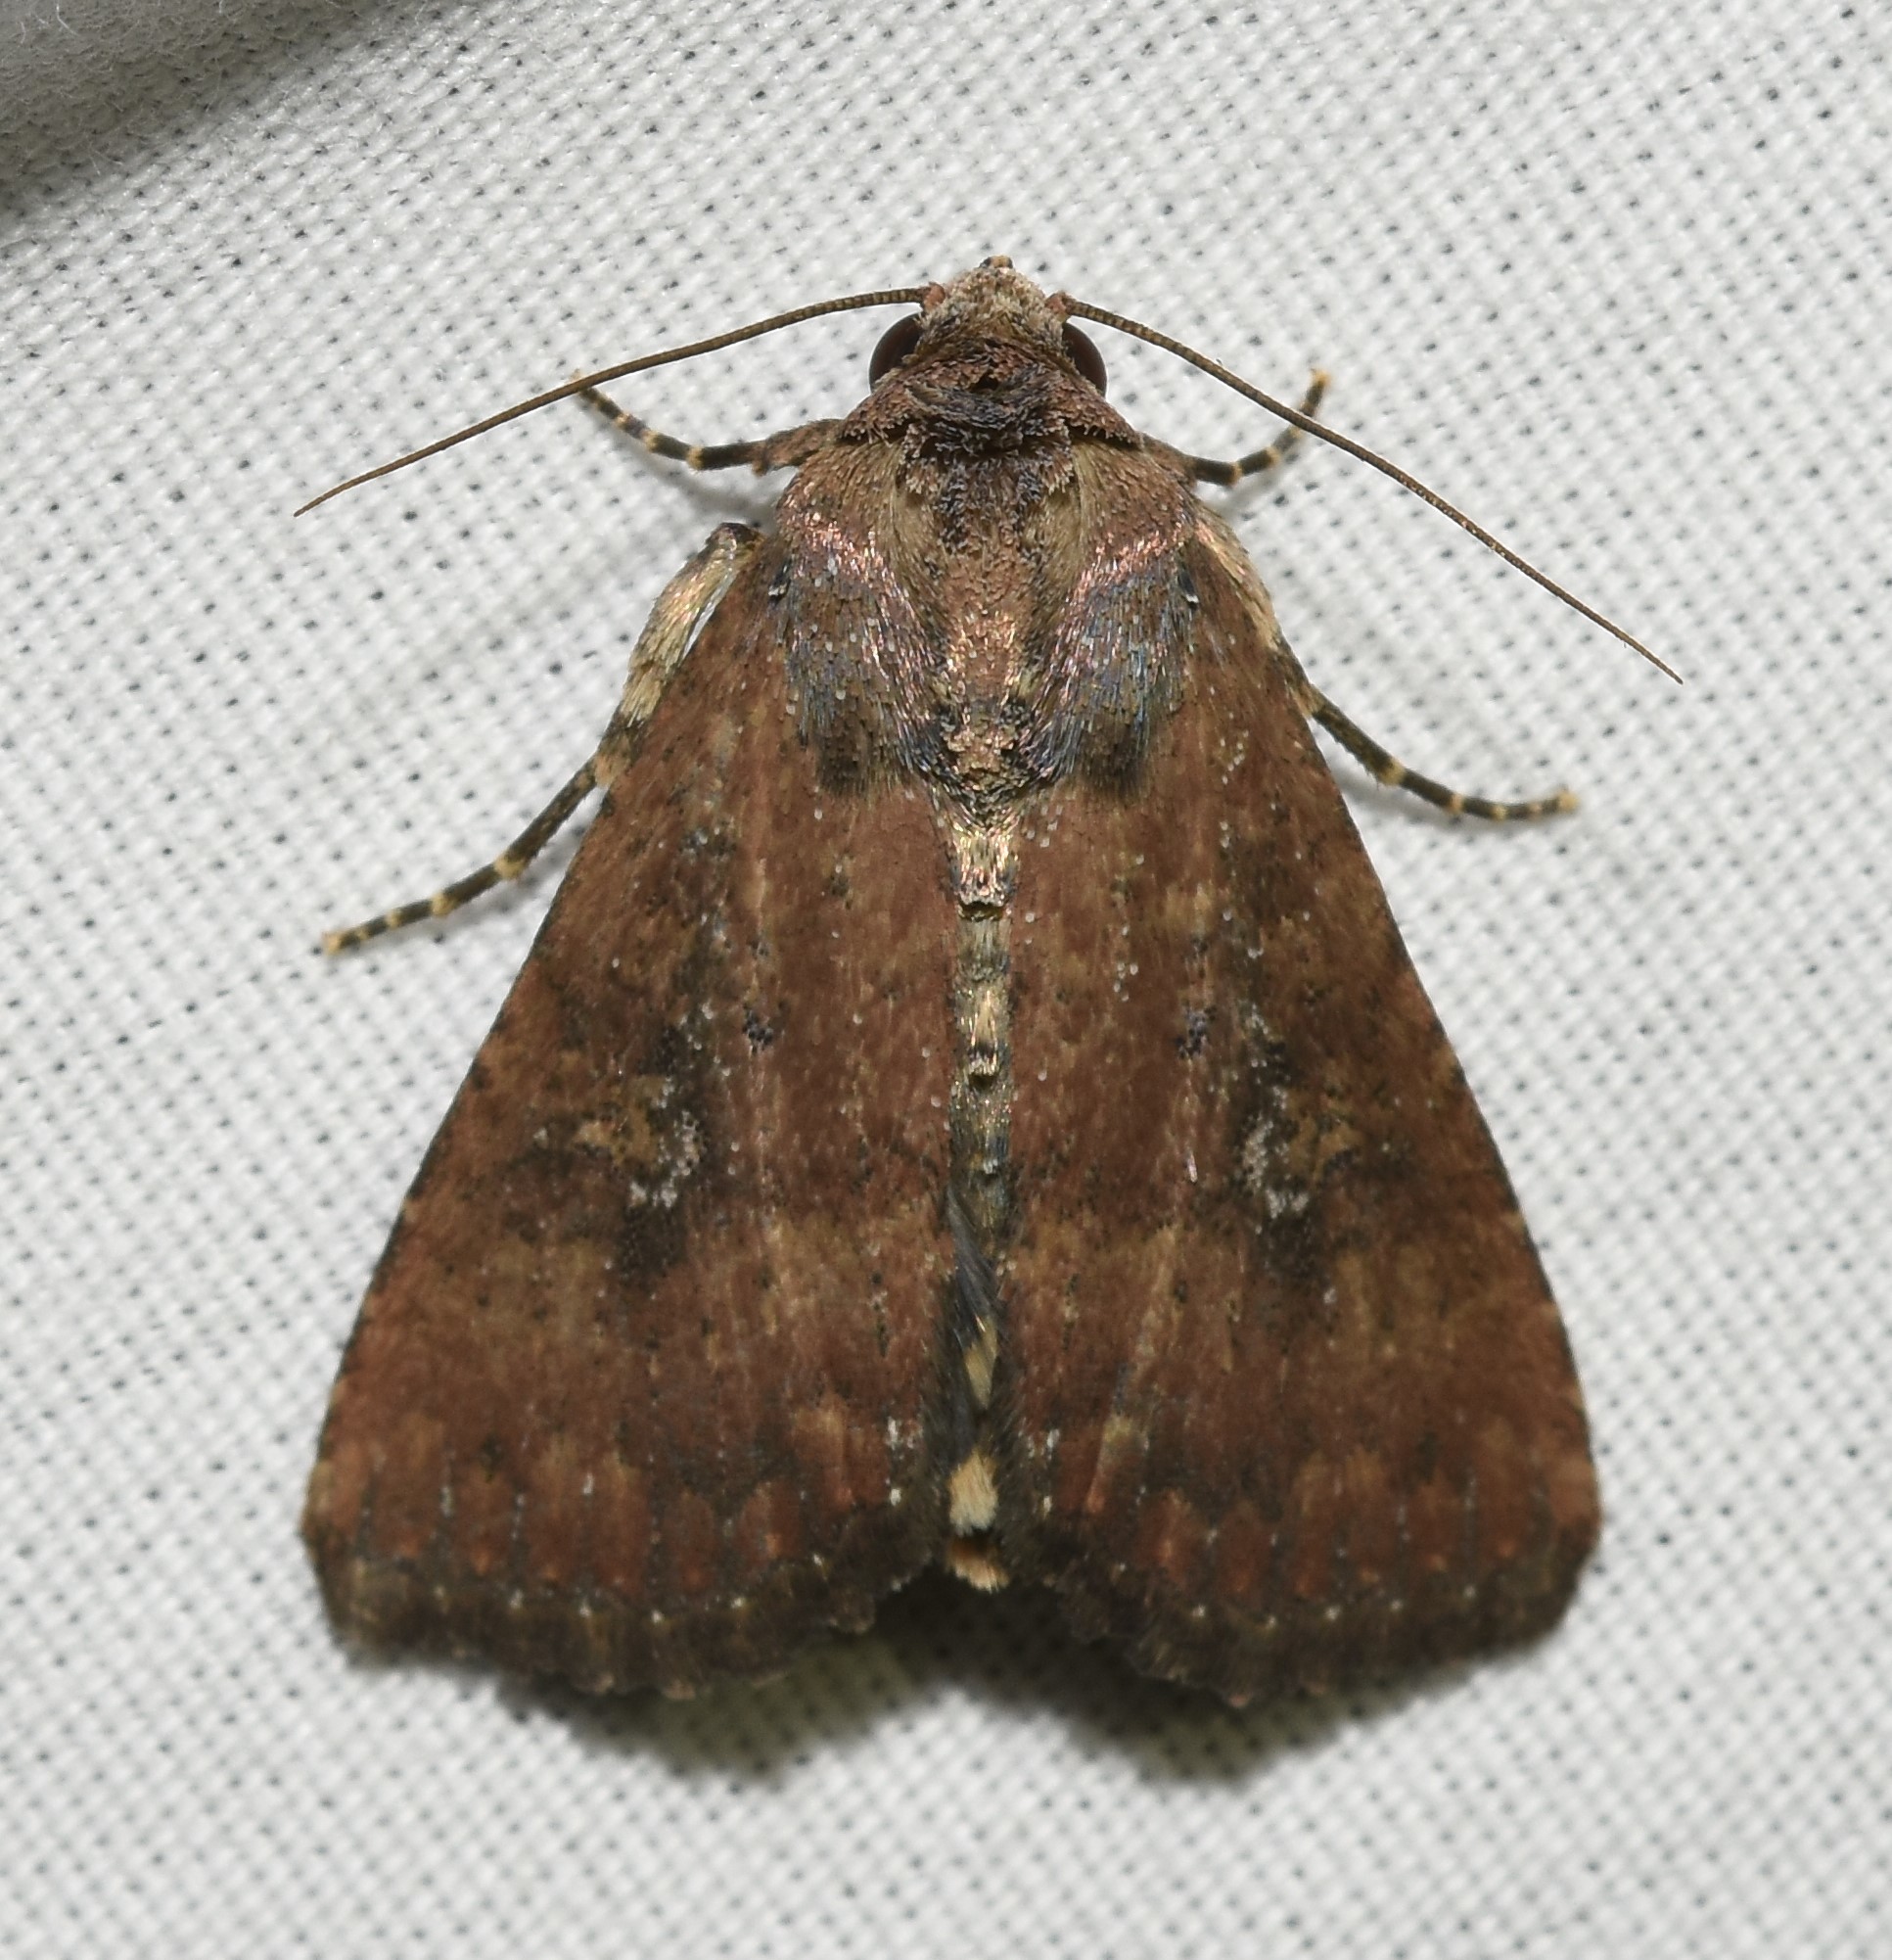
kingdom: Animalia
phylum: Arthropoda
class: Insecta
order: Lepidoptera
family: Noctuidae
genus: Condica
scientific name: Condica sutor
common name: Cobbler moth
